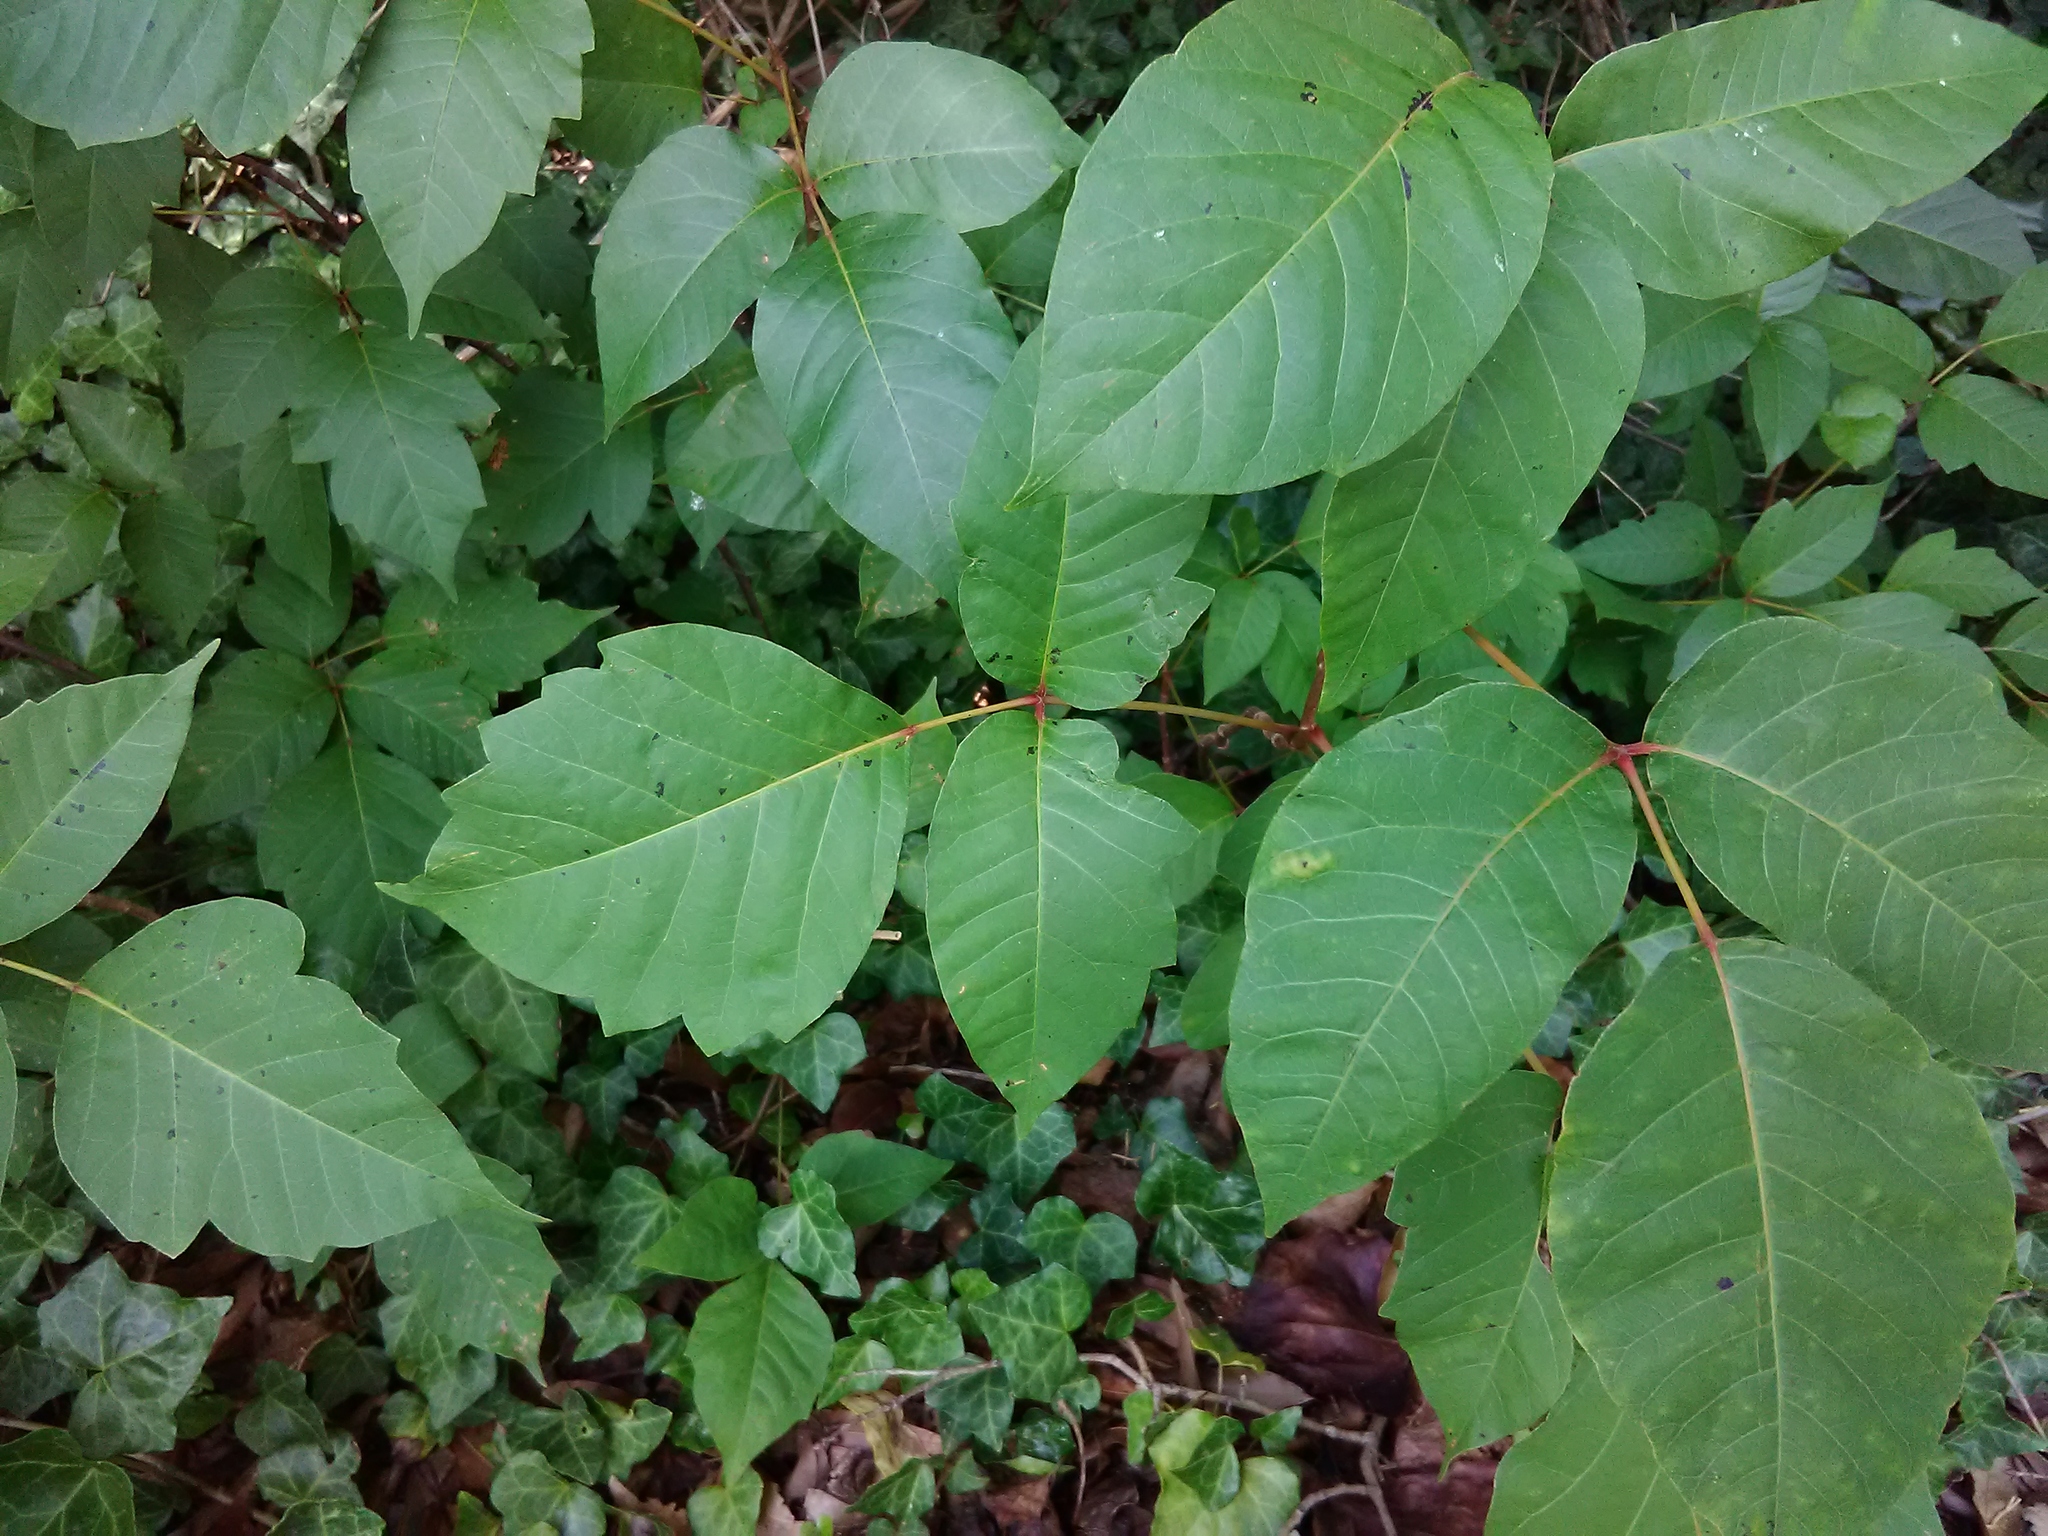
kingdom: Plantae
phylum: Tracheophyta
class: Magnoliopsida
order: Sapindales
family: Anacardiaceae
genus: Toxicodendron
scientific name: Toxicodendron radicans
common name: Poison ivy
